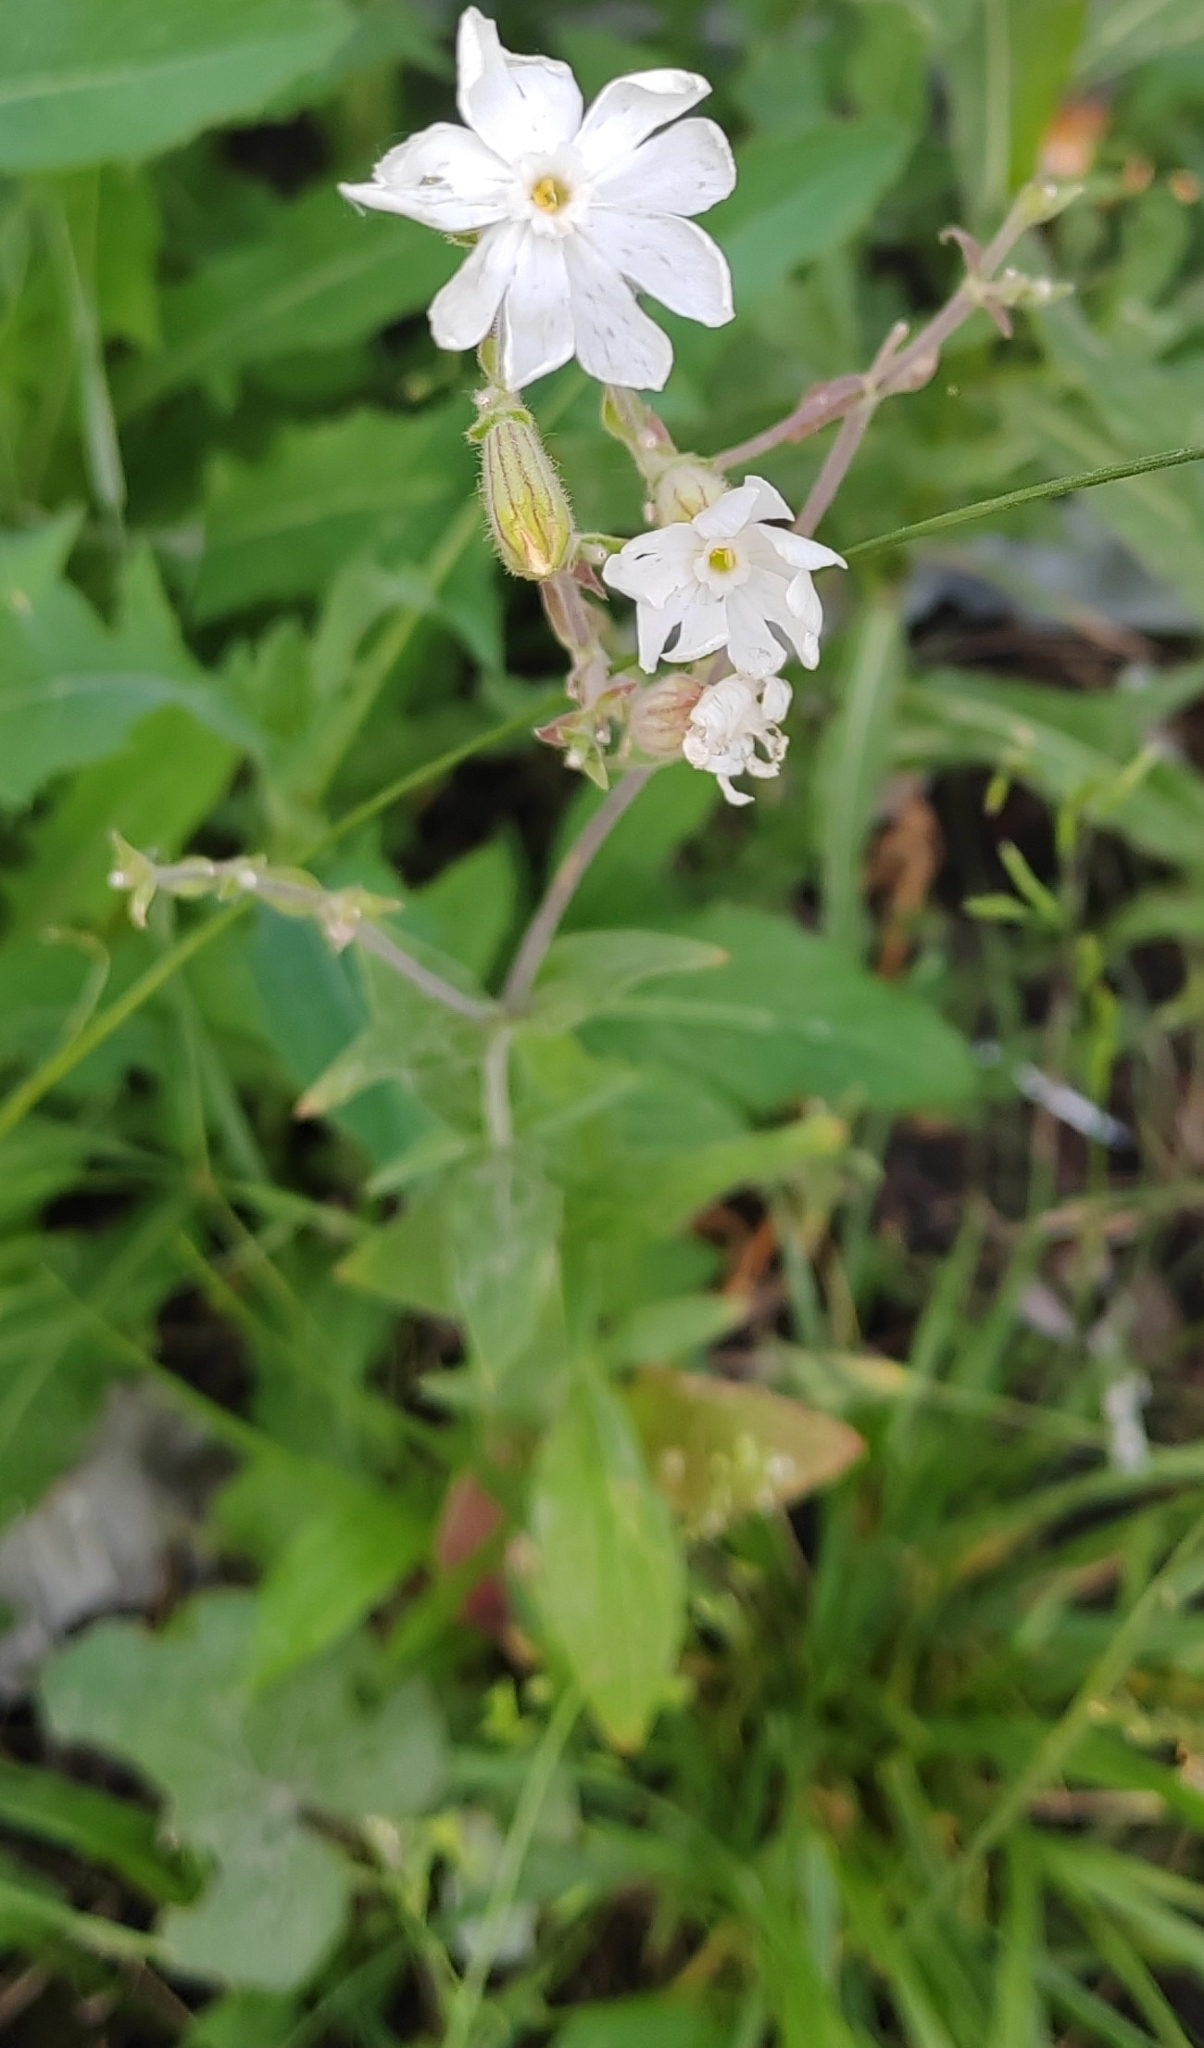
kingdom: Plantae
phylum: Tracheophyta
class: Magnoliopsida
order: Caryophyllales
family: Caryophyllaceae
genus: Silene
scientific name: Silene latifolia
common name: White campion
